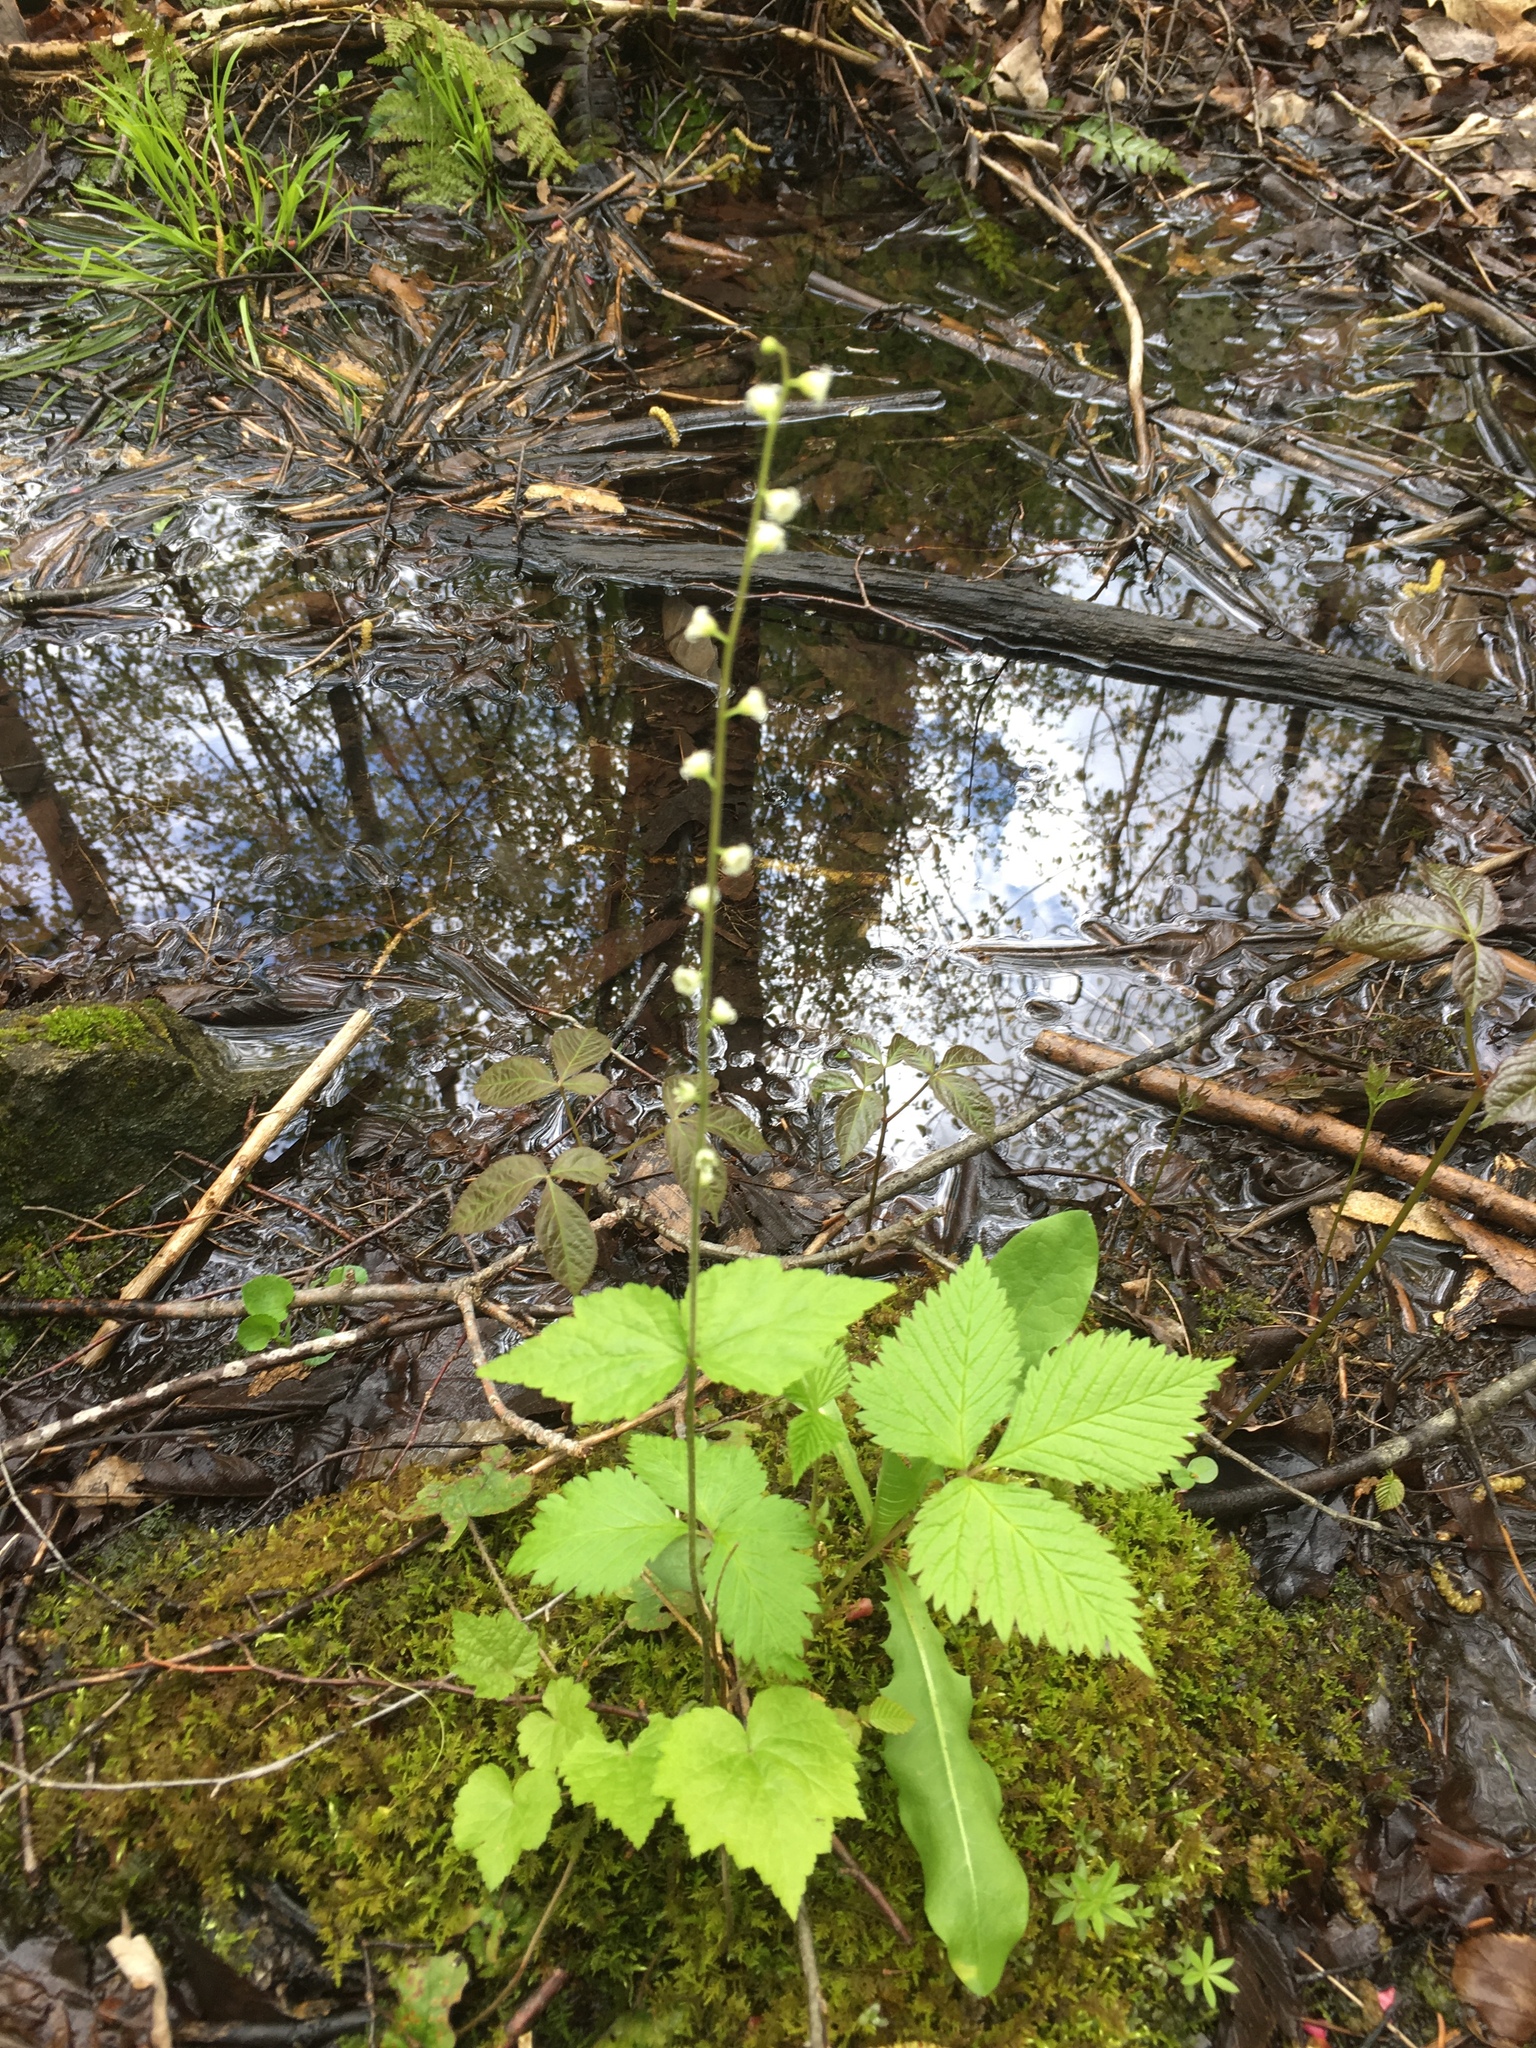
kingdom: Plantae
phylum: Tracheophyta
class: Magnoliopsida
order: Saxifragales
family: Saxifragaceae
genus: Mitella
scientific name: Mitella diphylla
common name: Coolwort
